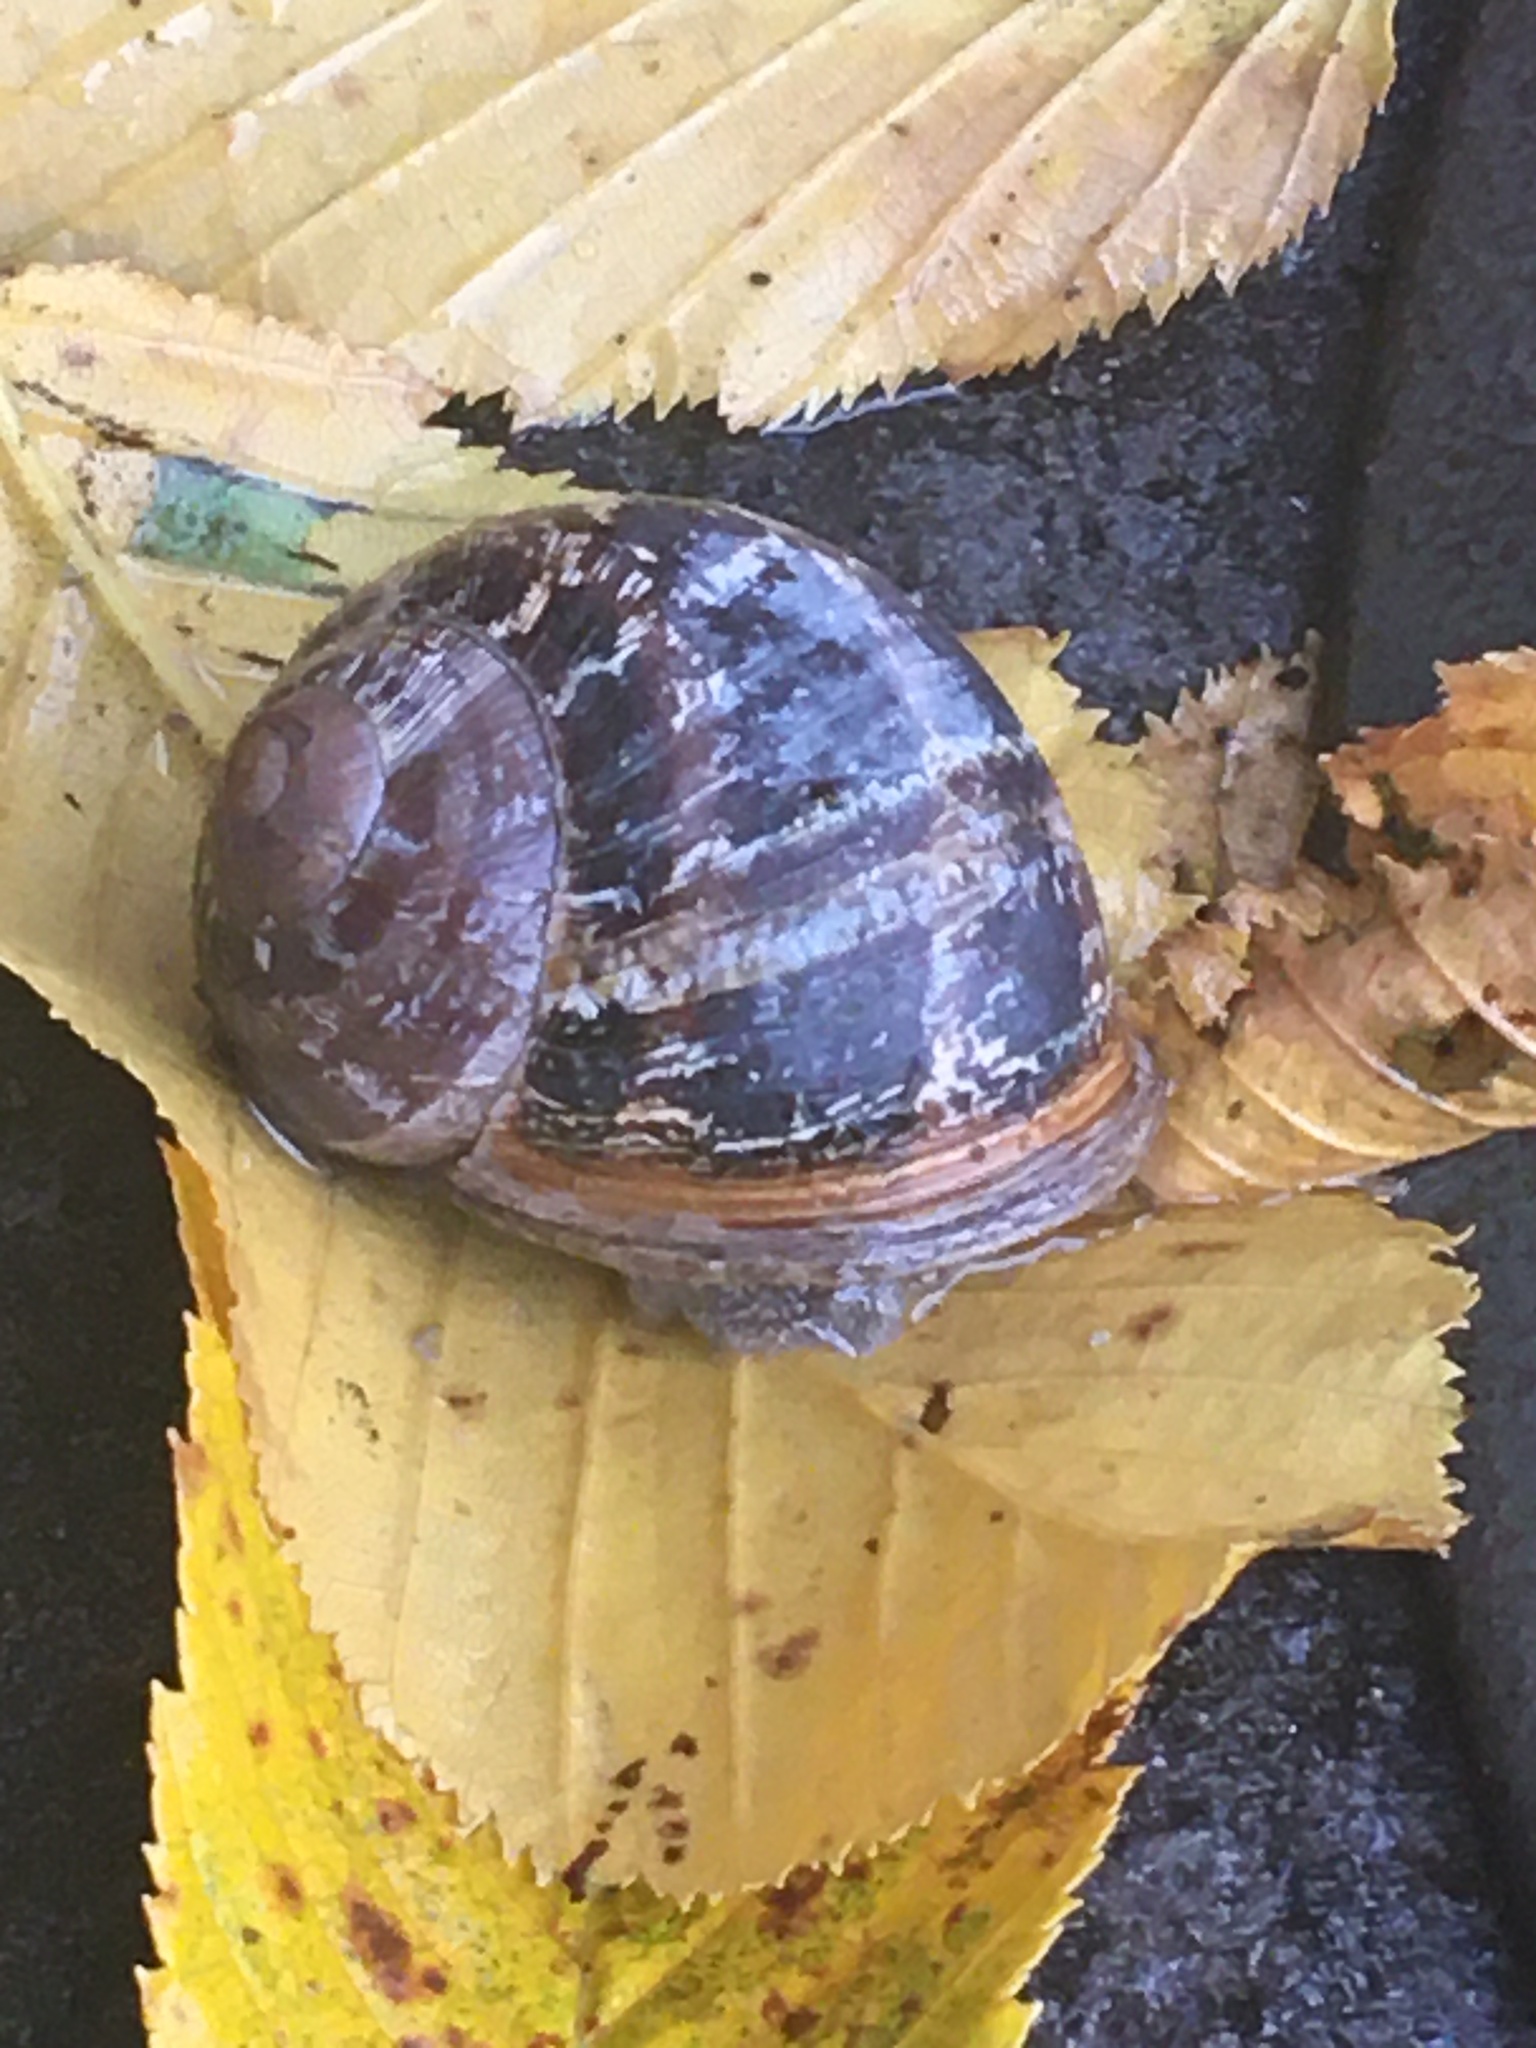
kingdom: Animalia
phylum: Mollusca
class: Gastropoda
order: Stylommatophora
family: Helicidae
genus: Cornu
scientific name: Cornu aspersum
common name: Brown garden snail
